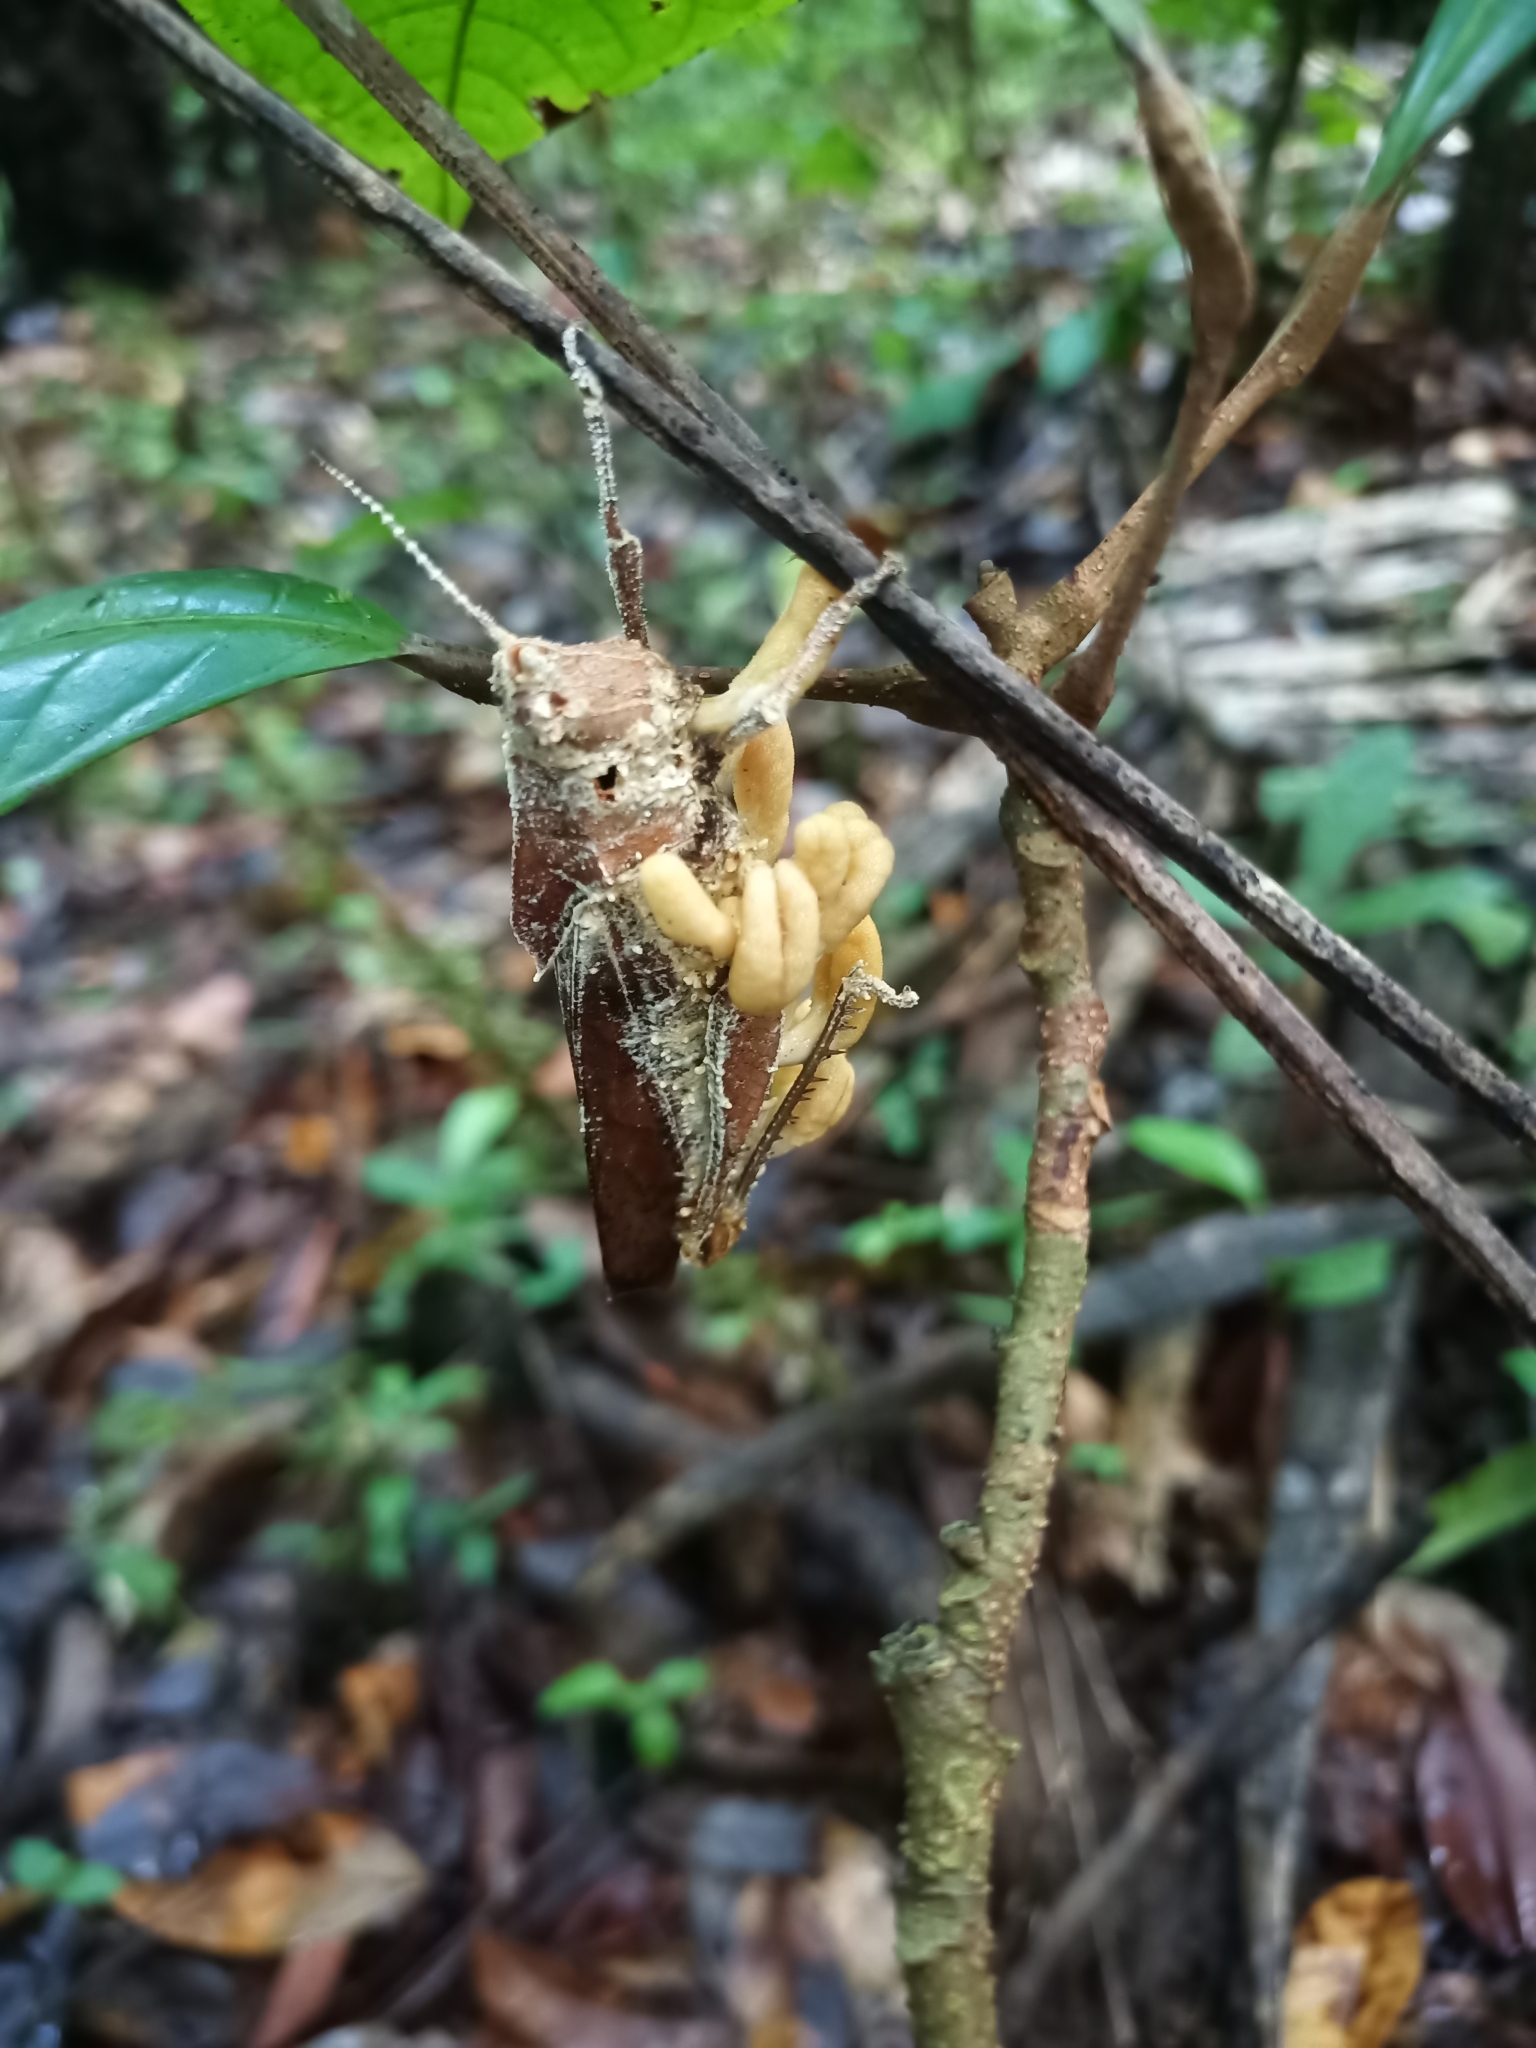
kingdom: Fungi
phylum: Ascomycota
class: Sordariomycetes
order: Hypocreales
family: Cordycipitaceae
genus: Beauveria
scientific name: Beauveria locustiphila
